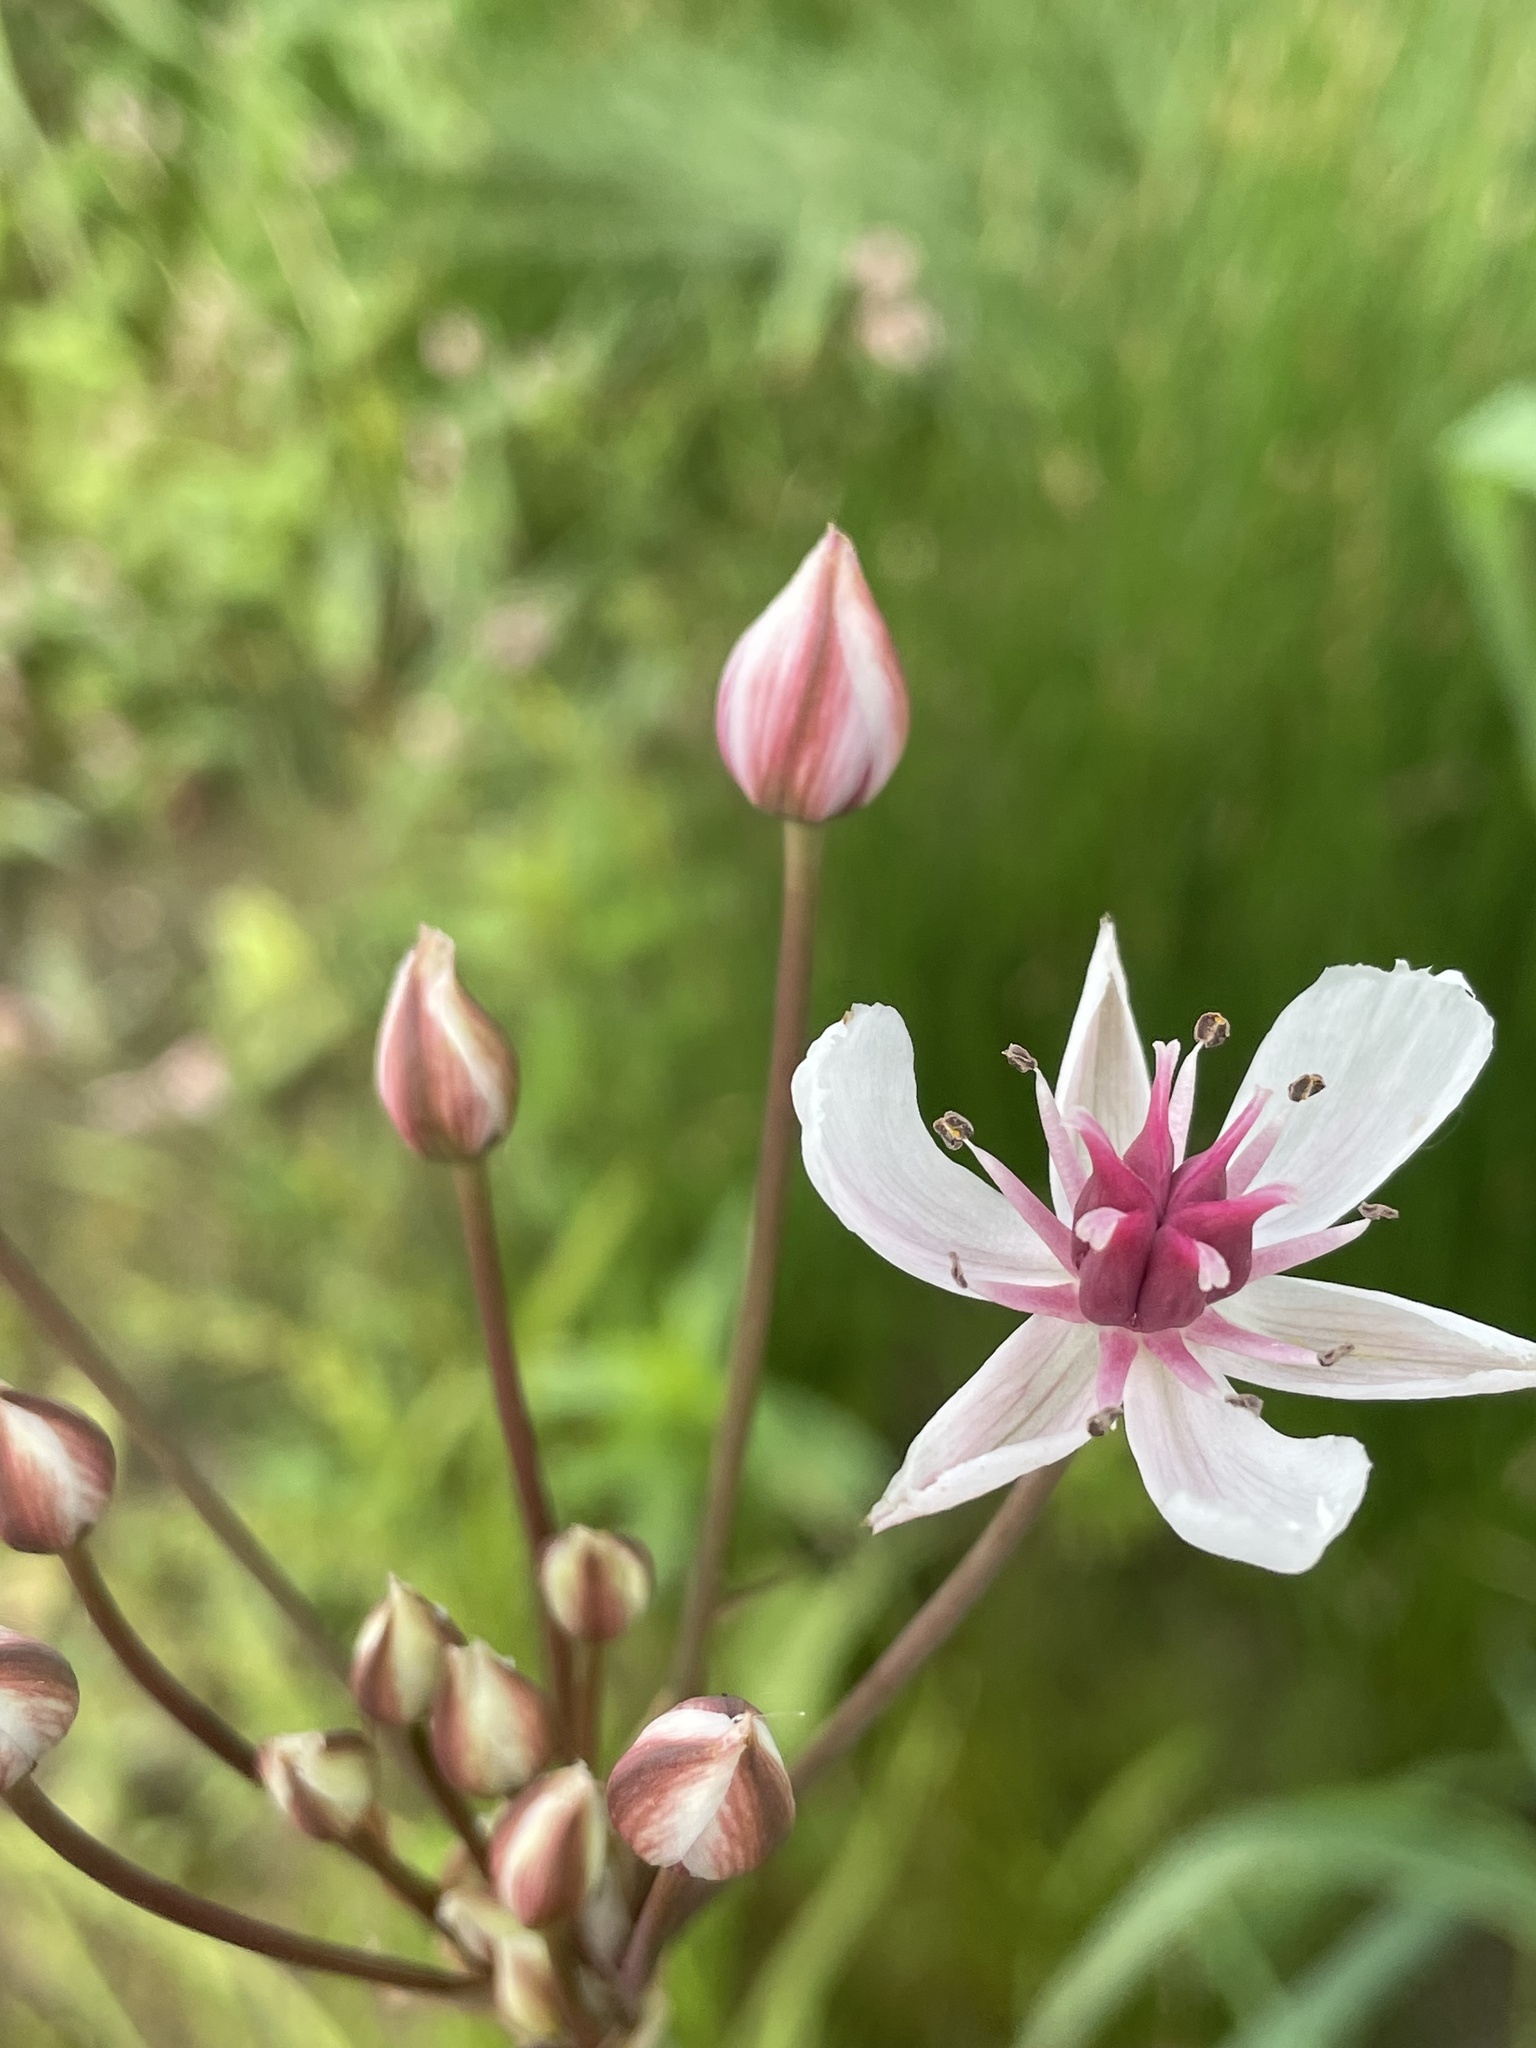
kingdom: Plantae
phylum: Tracheophyta
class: Liliopsida
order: Alismatales
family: Butomaceae
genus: Butomus
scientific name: Butomus umbellatus
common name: Flowering-rush
